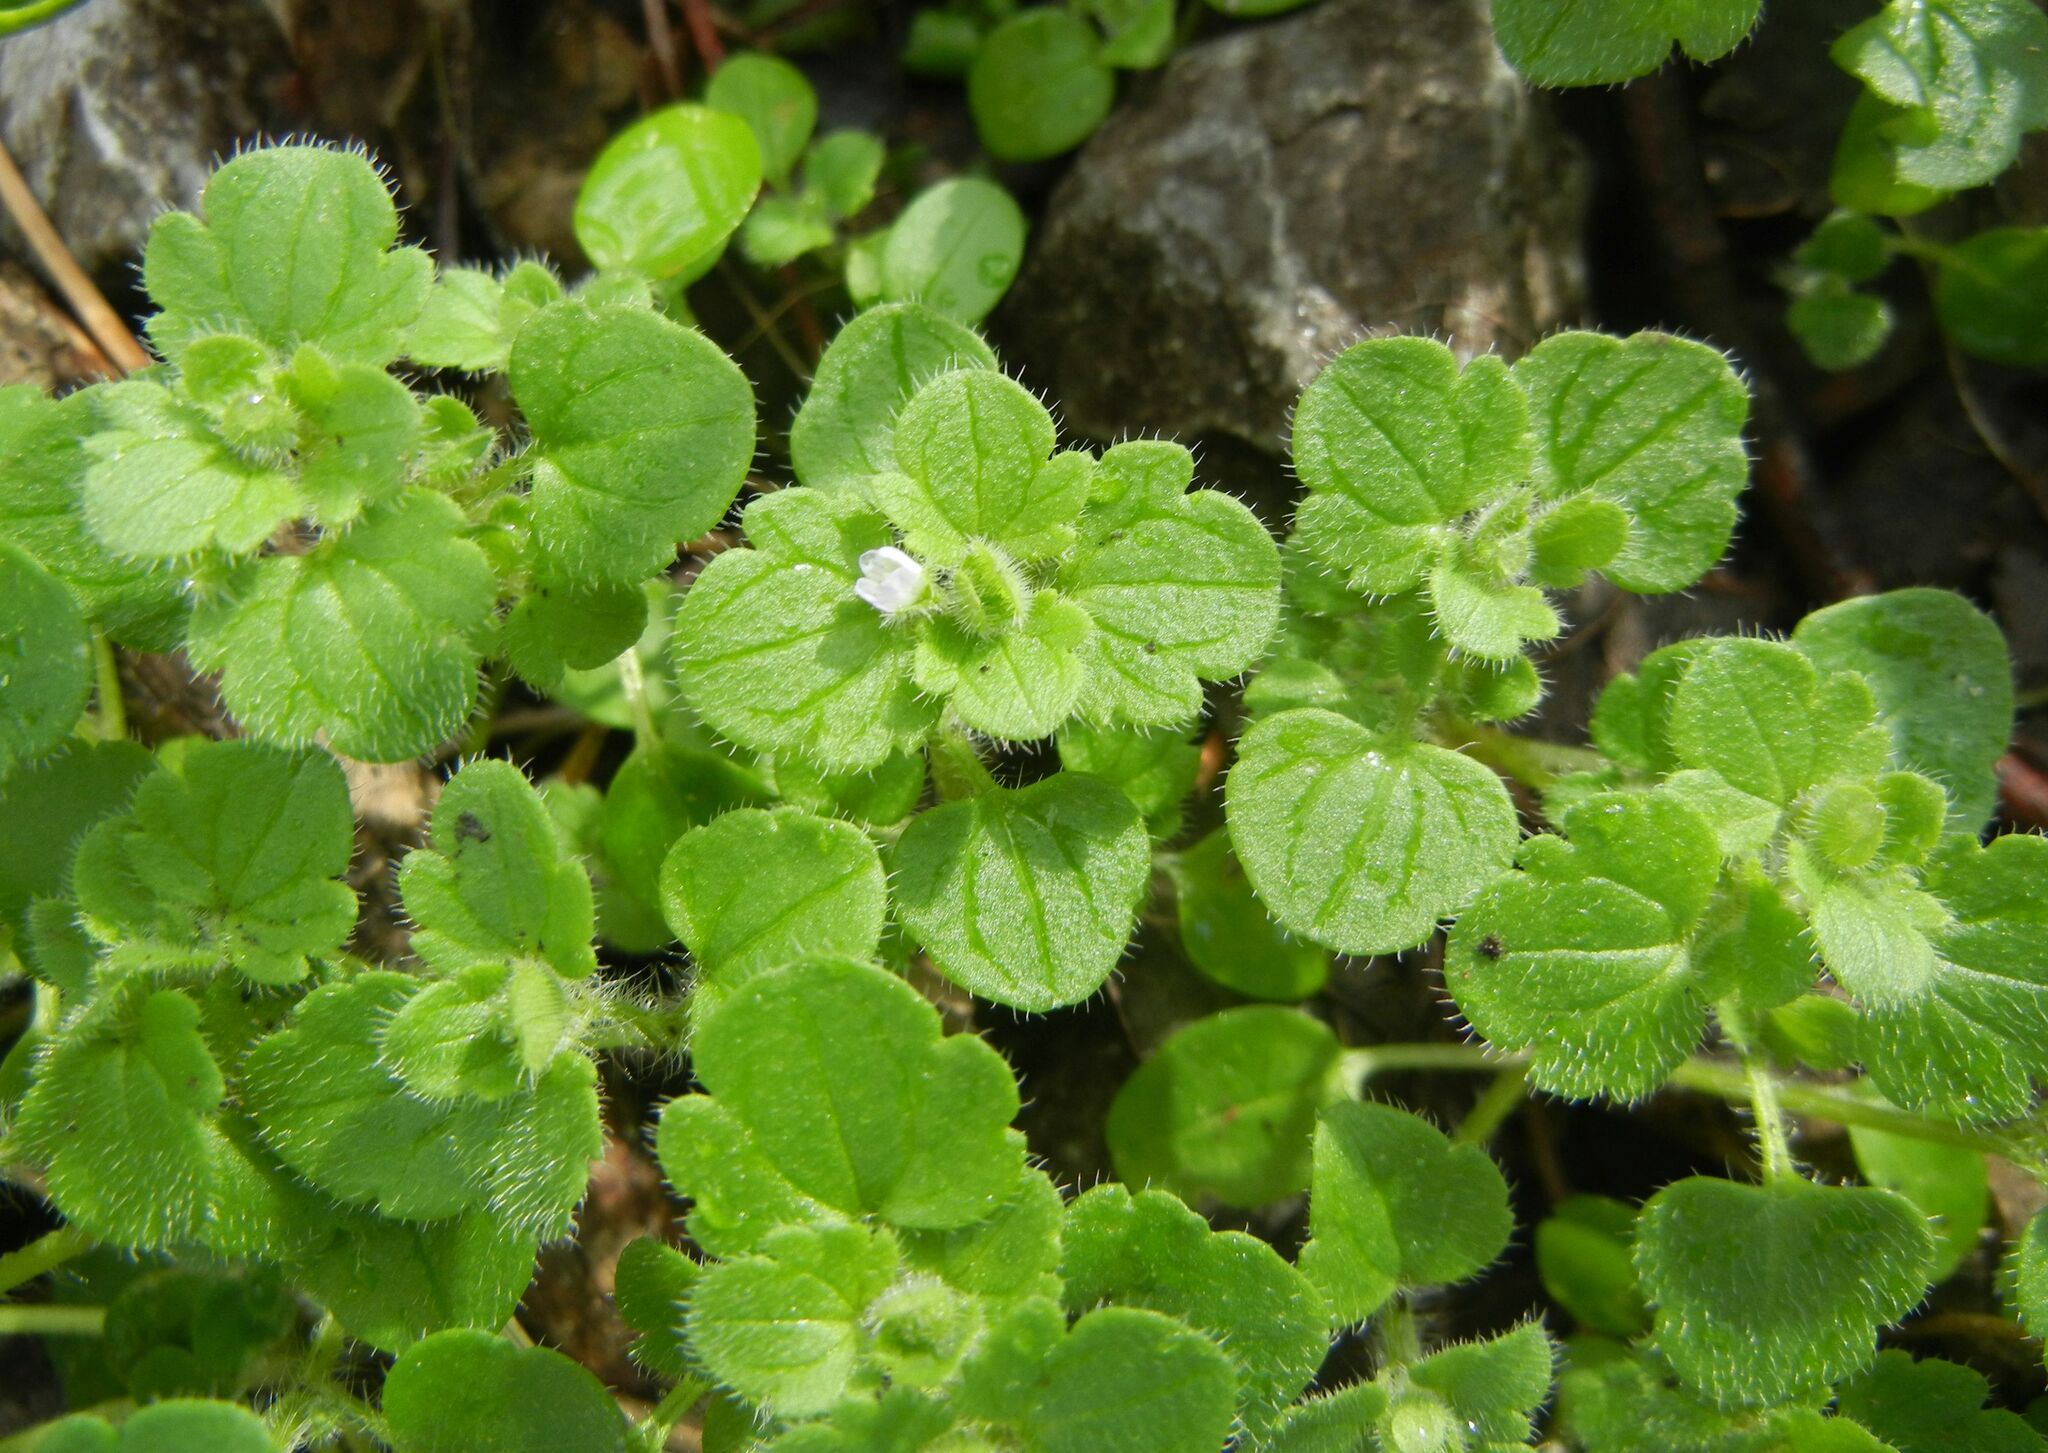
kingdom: Plantae
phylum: Tracheophyta
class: Magnoliopsida
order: Lamiales
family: Plantaginaceae
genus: Veronica
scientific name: Veronica sublobata
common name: False ivy-leaved speedwell
